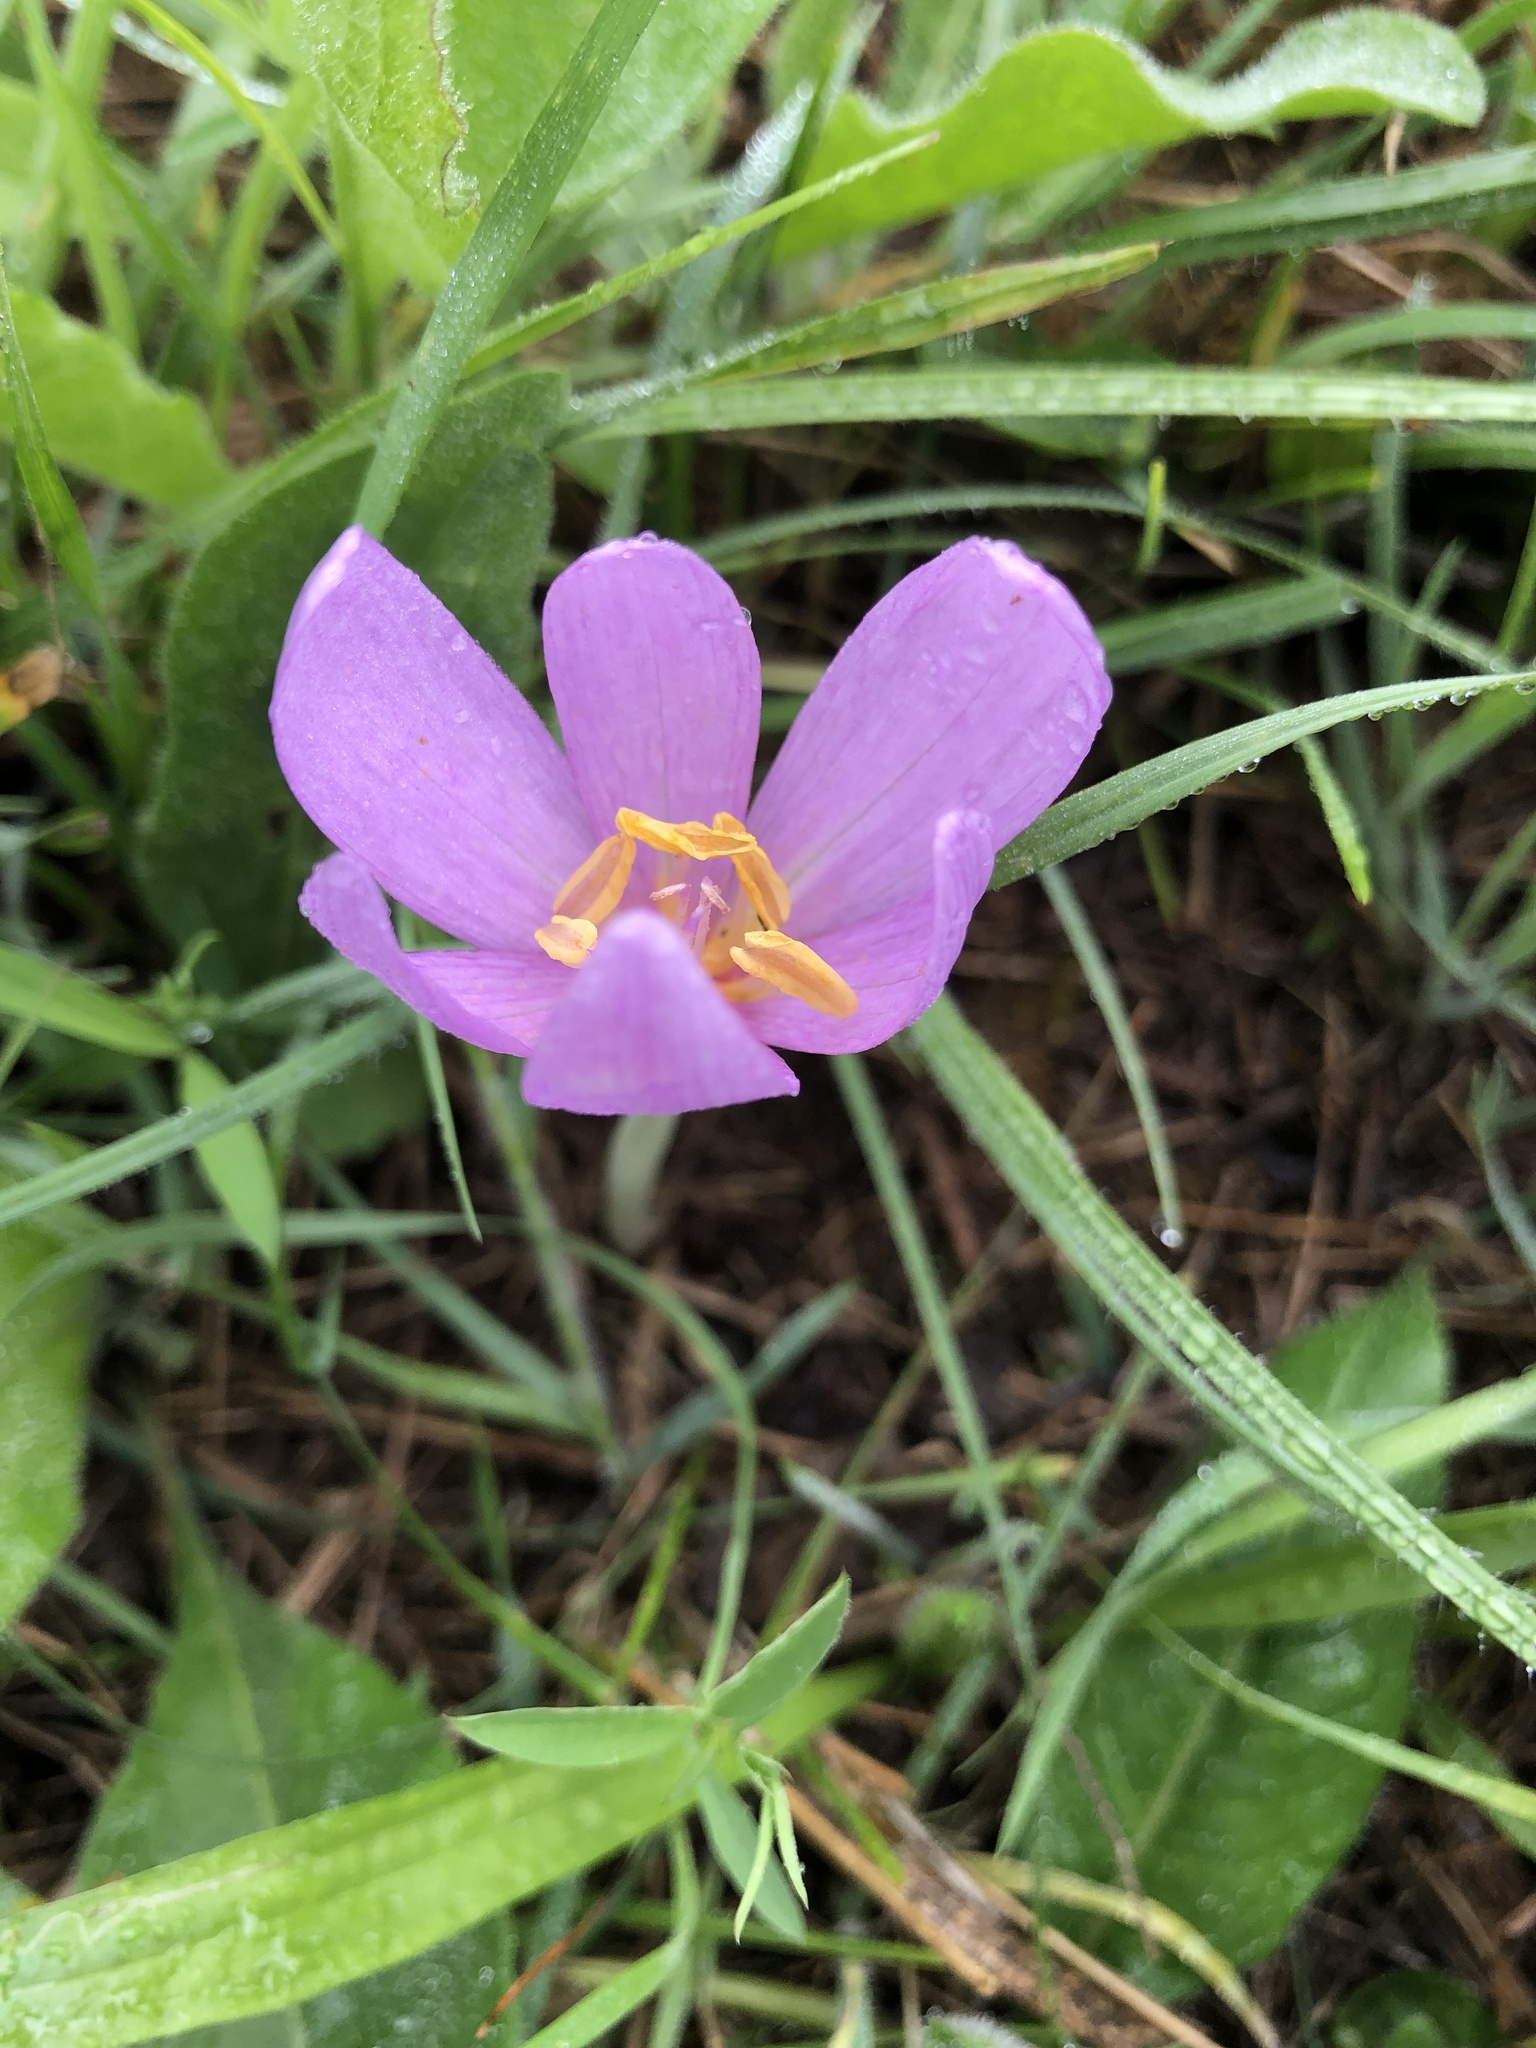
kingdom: Plantae
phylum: Tracheophyta
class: Liliopsida
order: Liliales
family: Colchicaceae
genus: Colchicum
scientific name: Colchicum autumnale
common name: Autumn crocus
